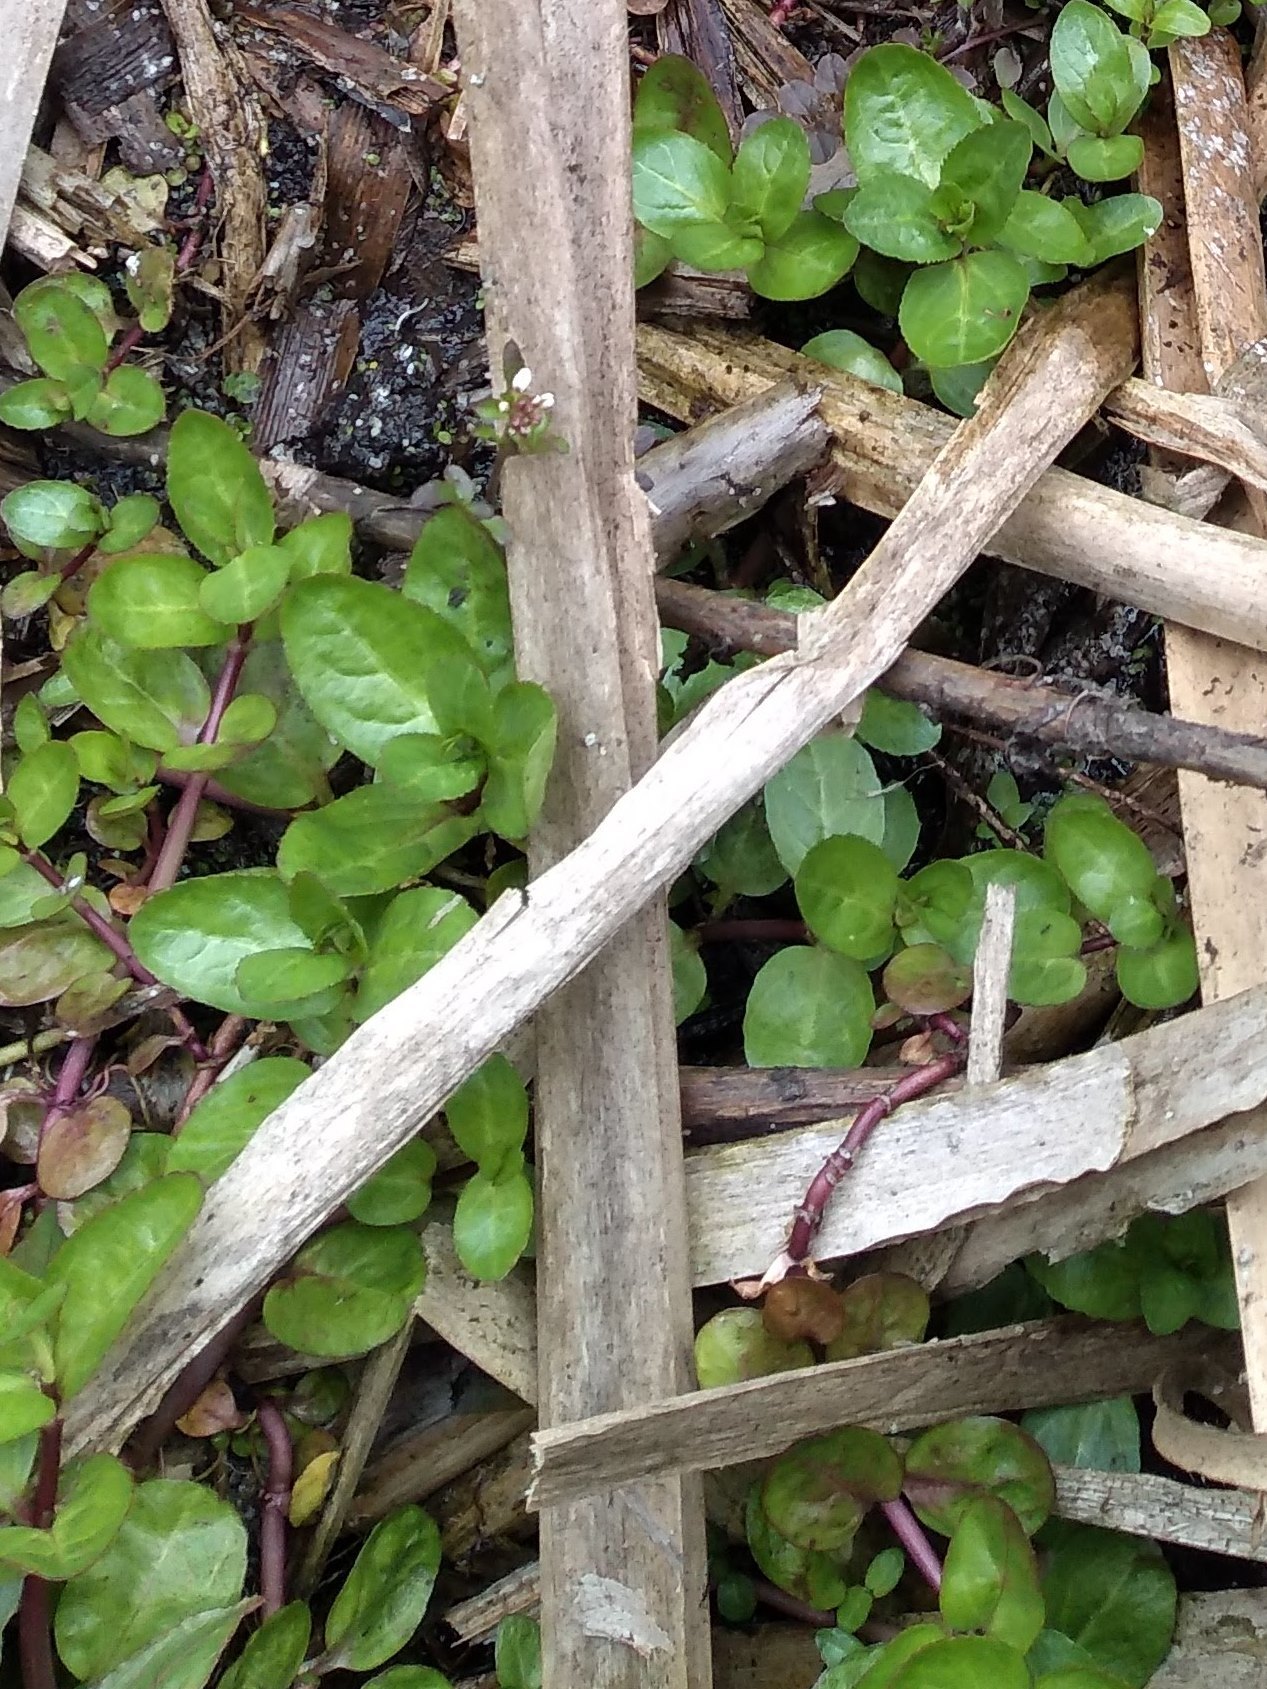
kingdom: Plantae
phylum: Tracheophyta
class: Magnoliopsida
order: Lamiales
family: Plantaginaceae
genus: Veronica
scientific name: Veronica beccabunga
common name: Brooklime
